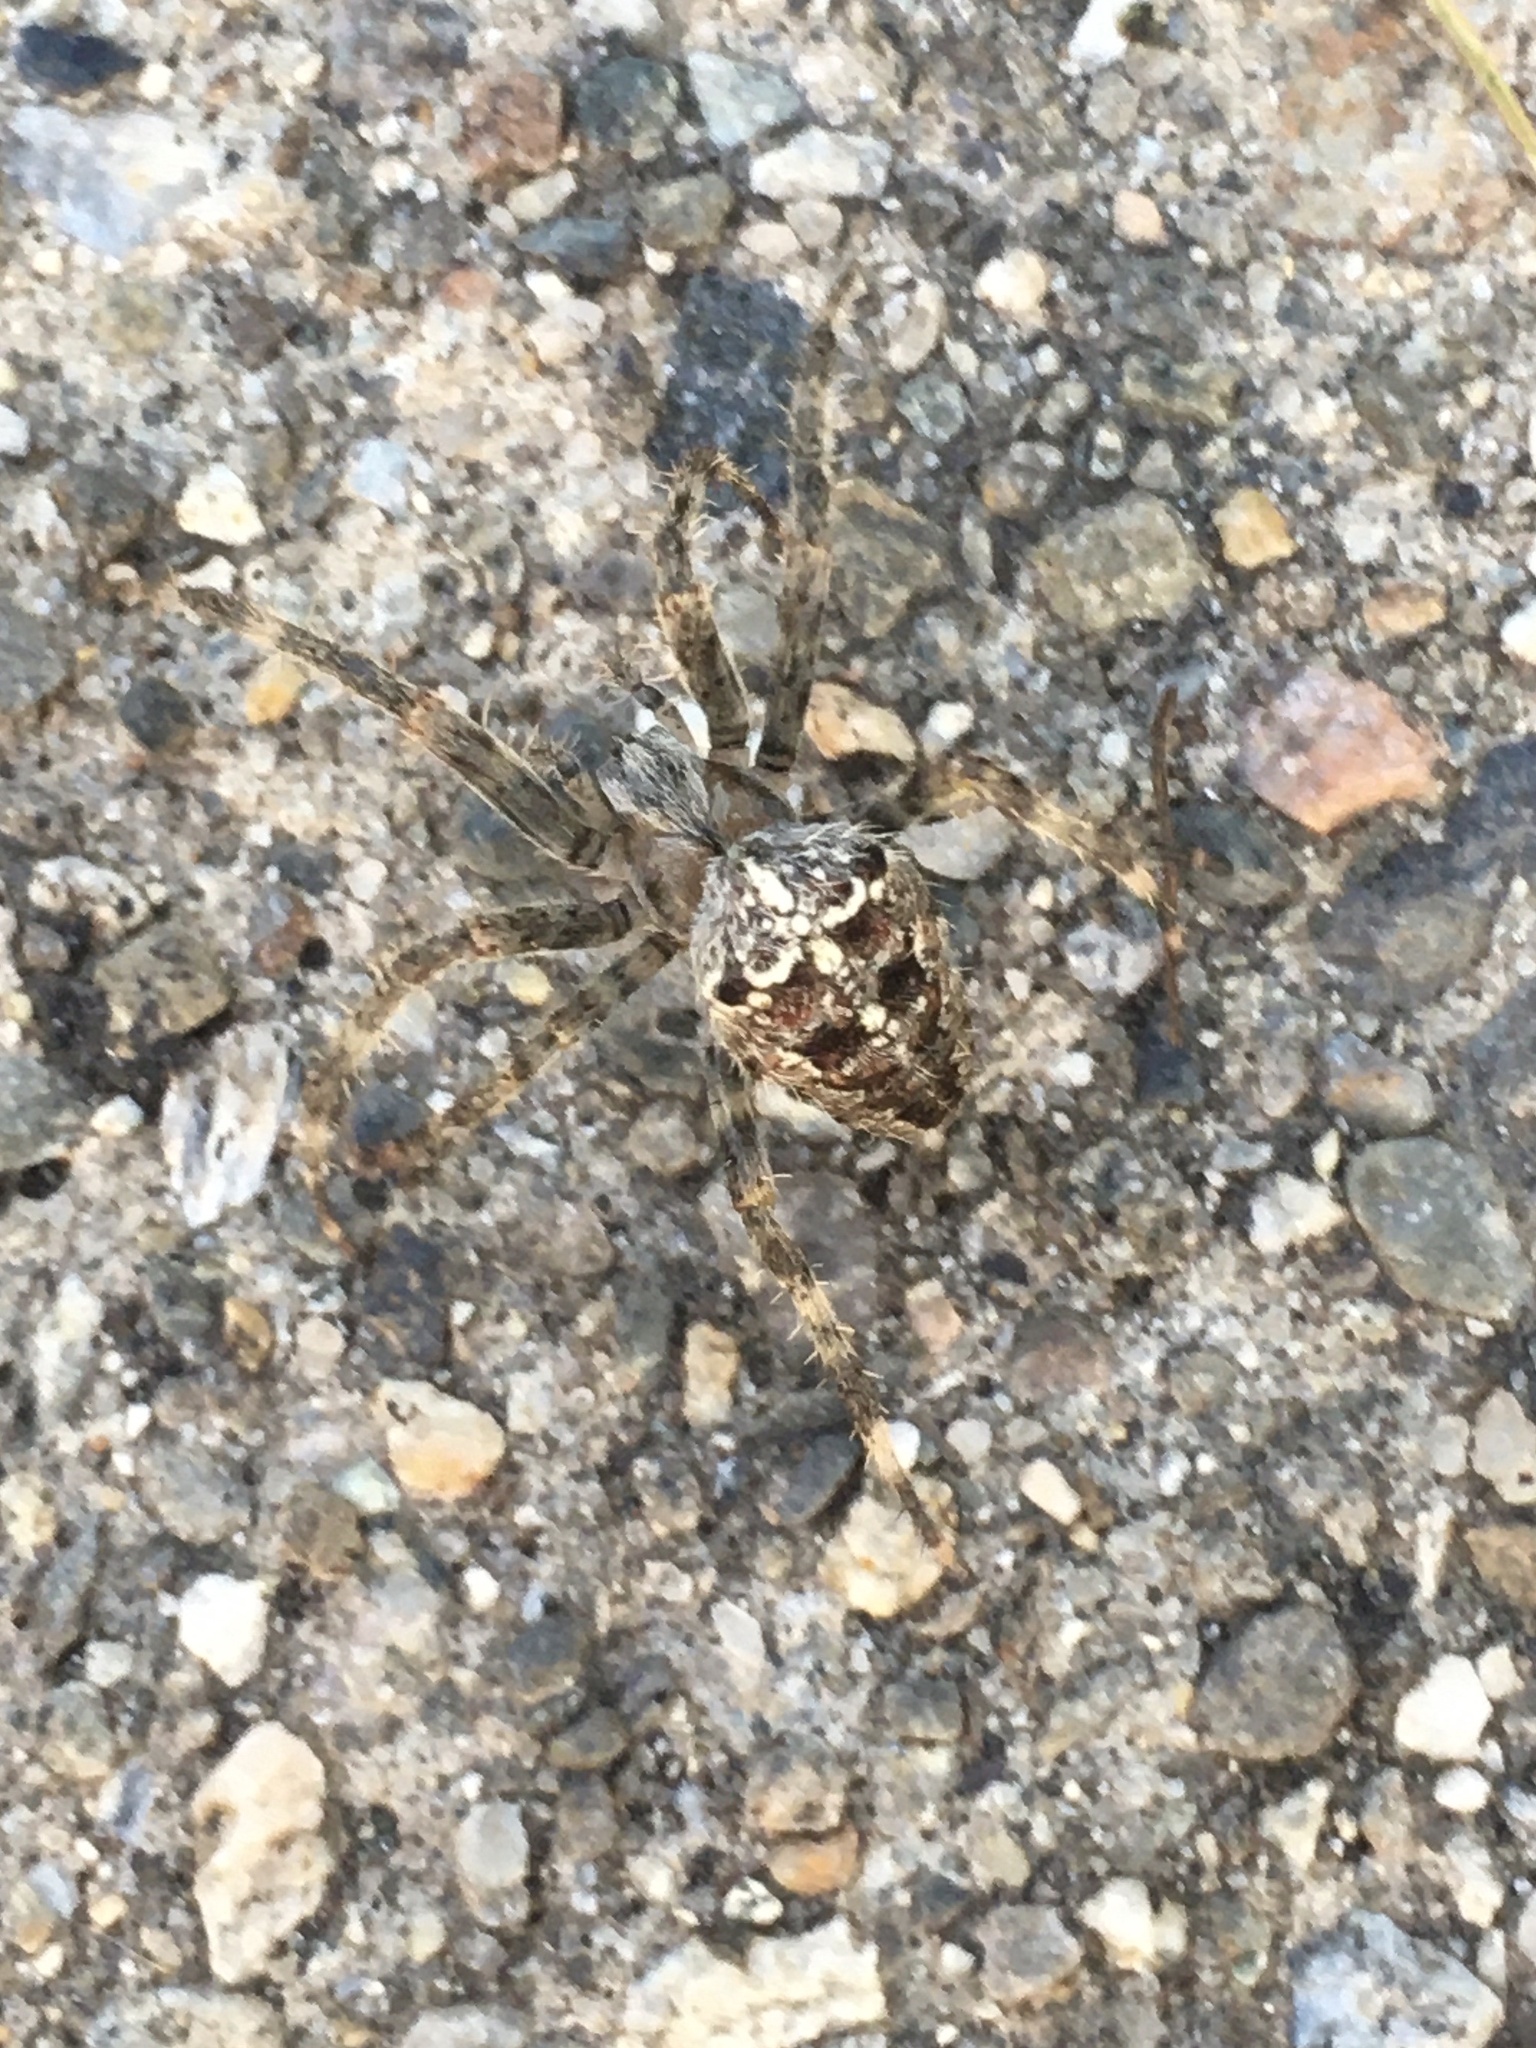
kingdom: Animalia
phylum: Arthropoda
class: Arachnida
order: Araneae
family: Araneidae
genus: Araneus
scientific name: Araneus diadematus
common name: Cross orbweaver
